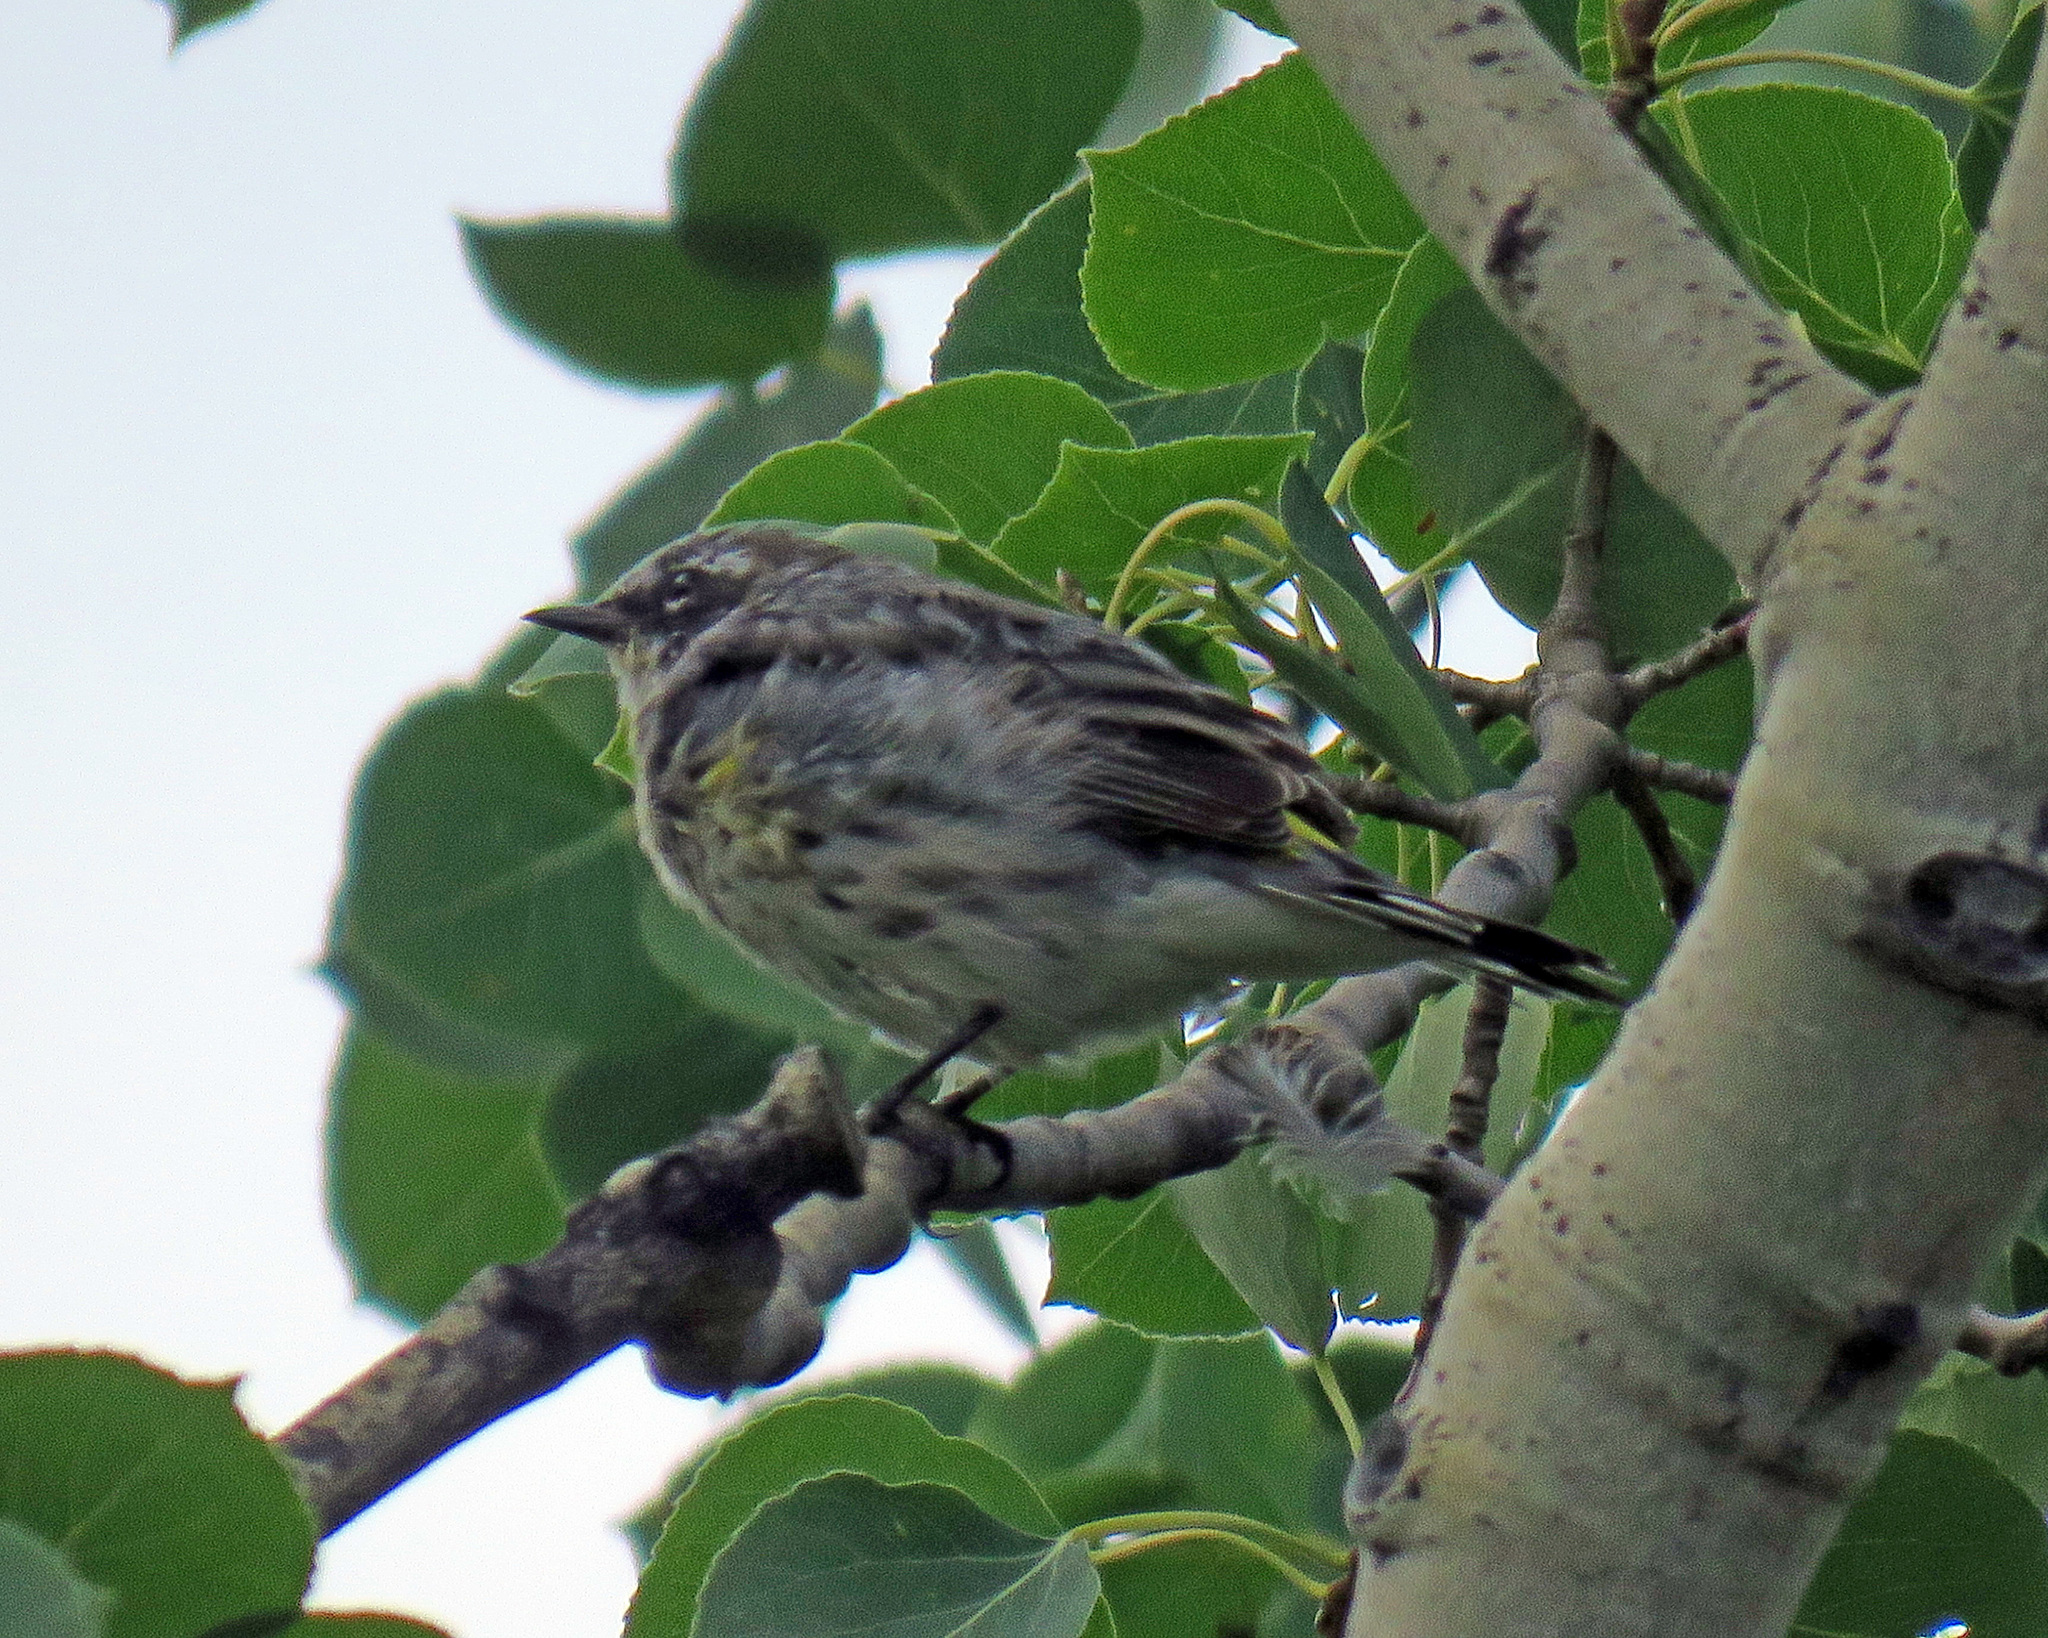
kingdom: Animalia
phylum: Chordata
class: Aves
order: Passeriformes
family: Parulidae
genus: Setophaga
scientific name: Setophaga coronata
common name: Myrtle warbler
